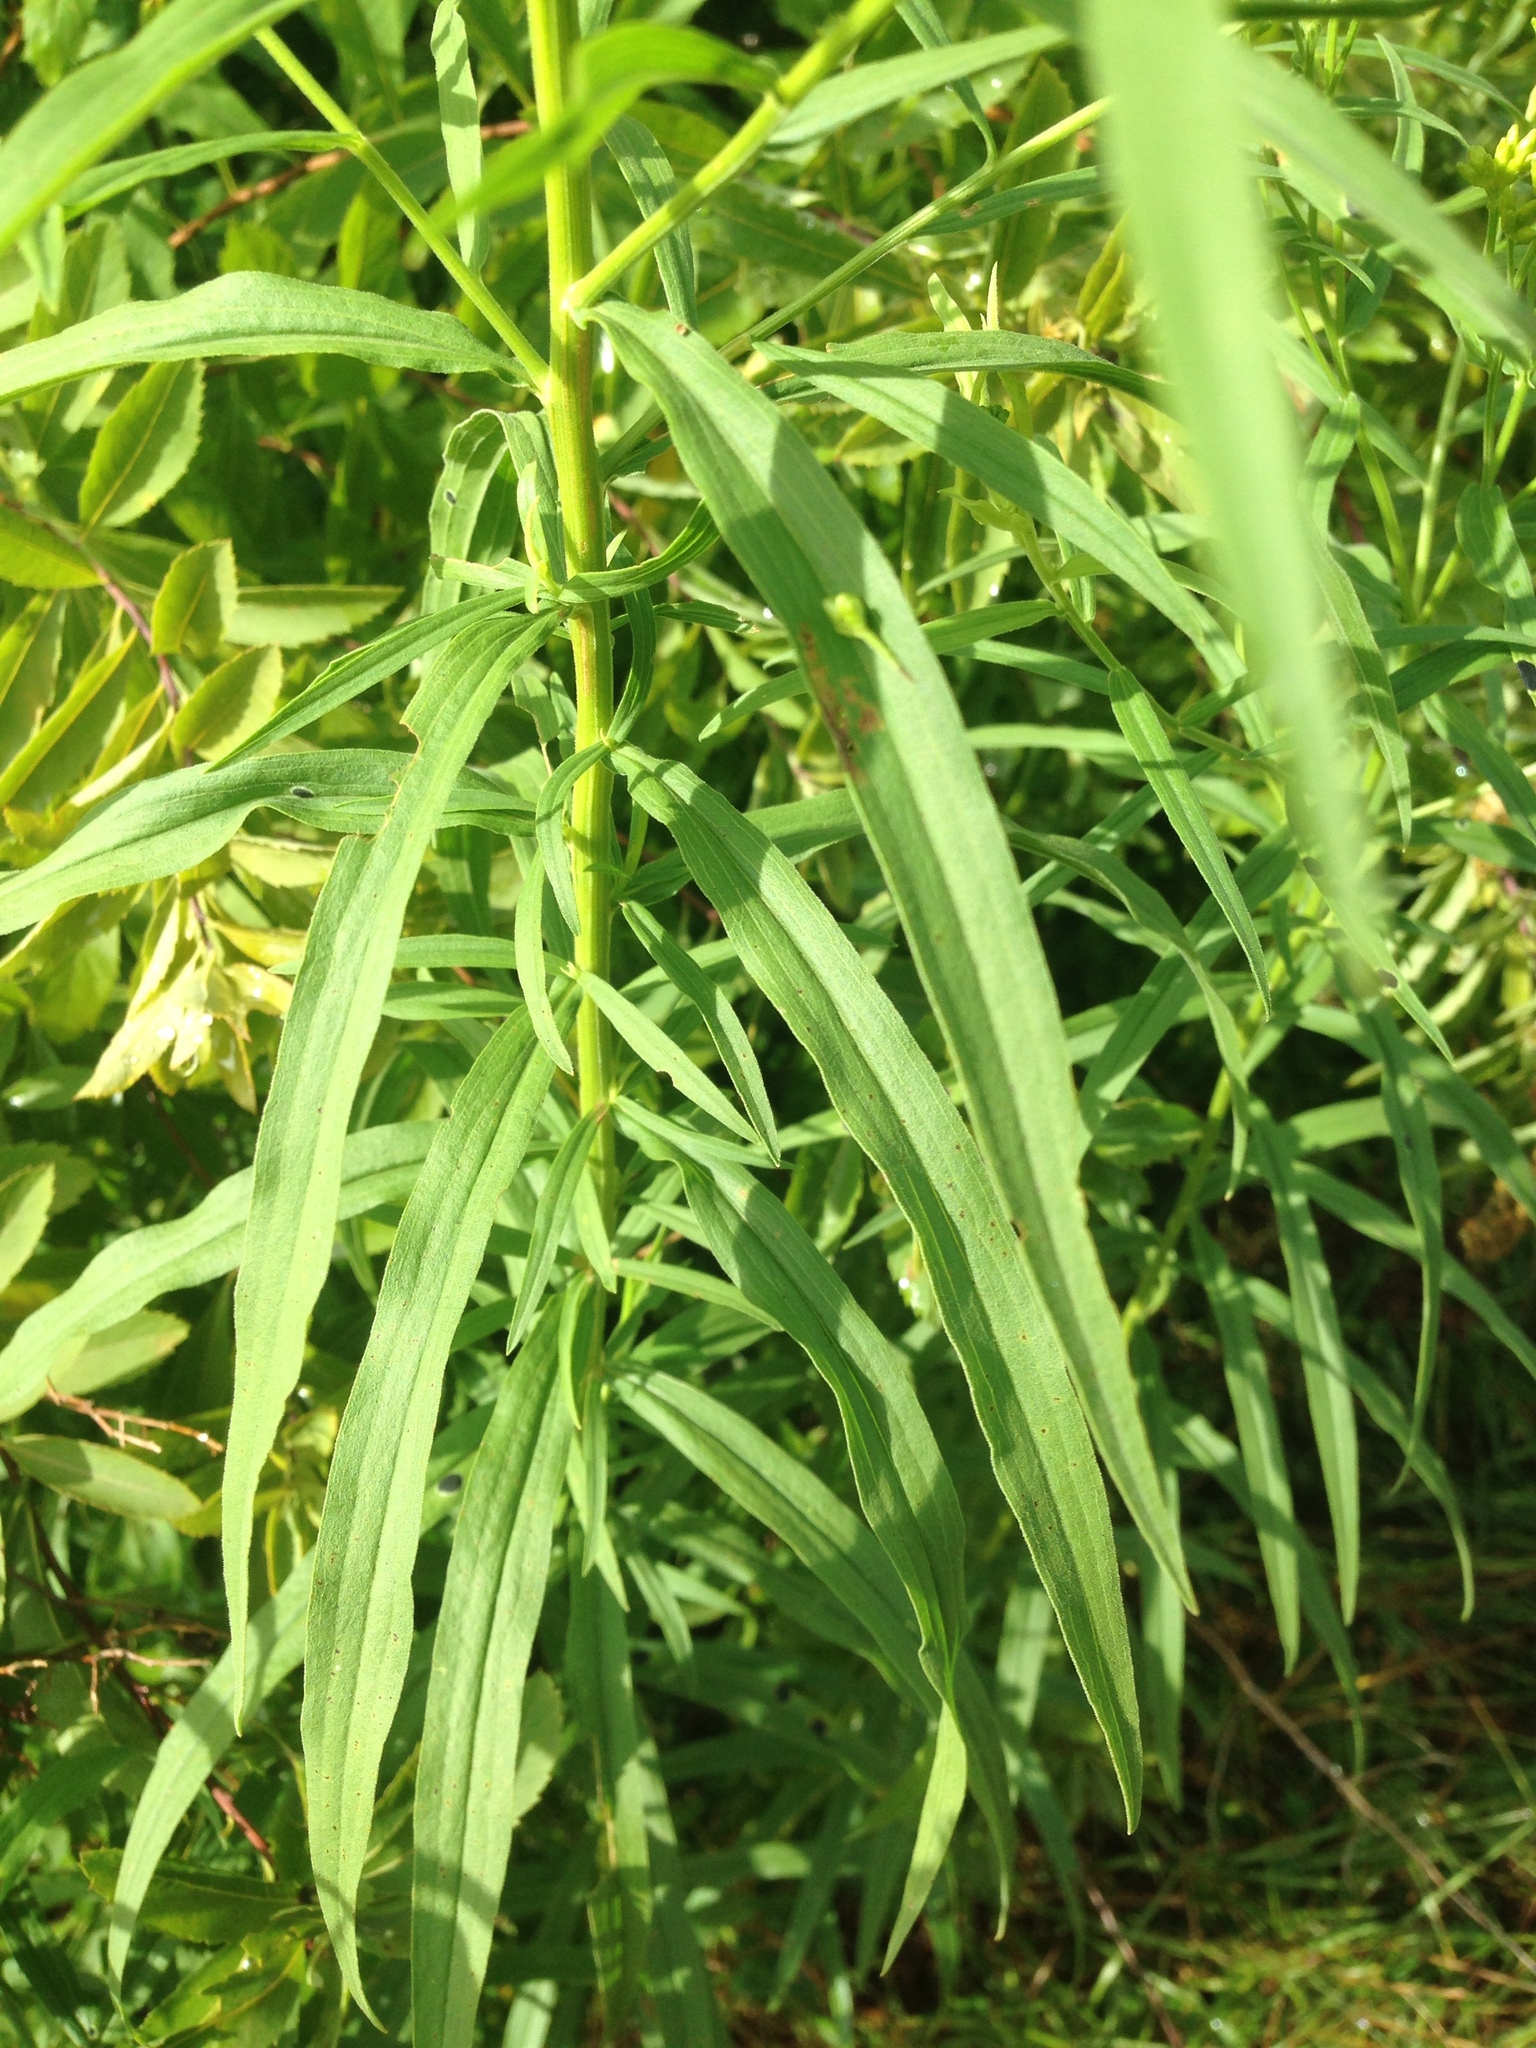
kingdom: Plantae
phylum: Tracheophyta
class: Magnoliopsida
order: Asterales
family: Asteraceae
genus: Euthamia
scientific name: Euthamia graminifolia
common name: Common goldentop
